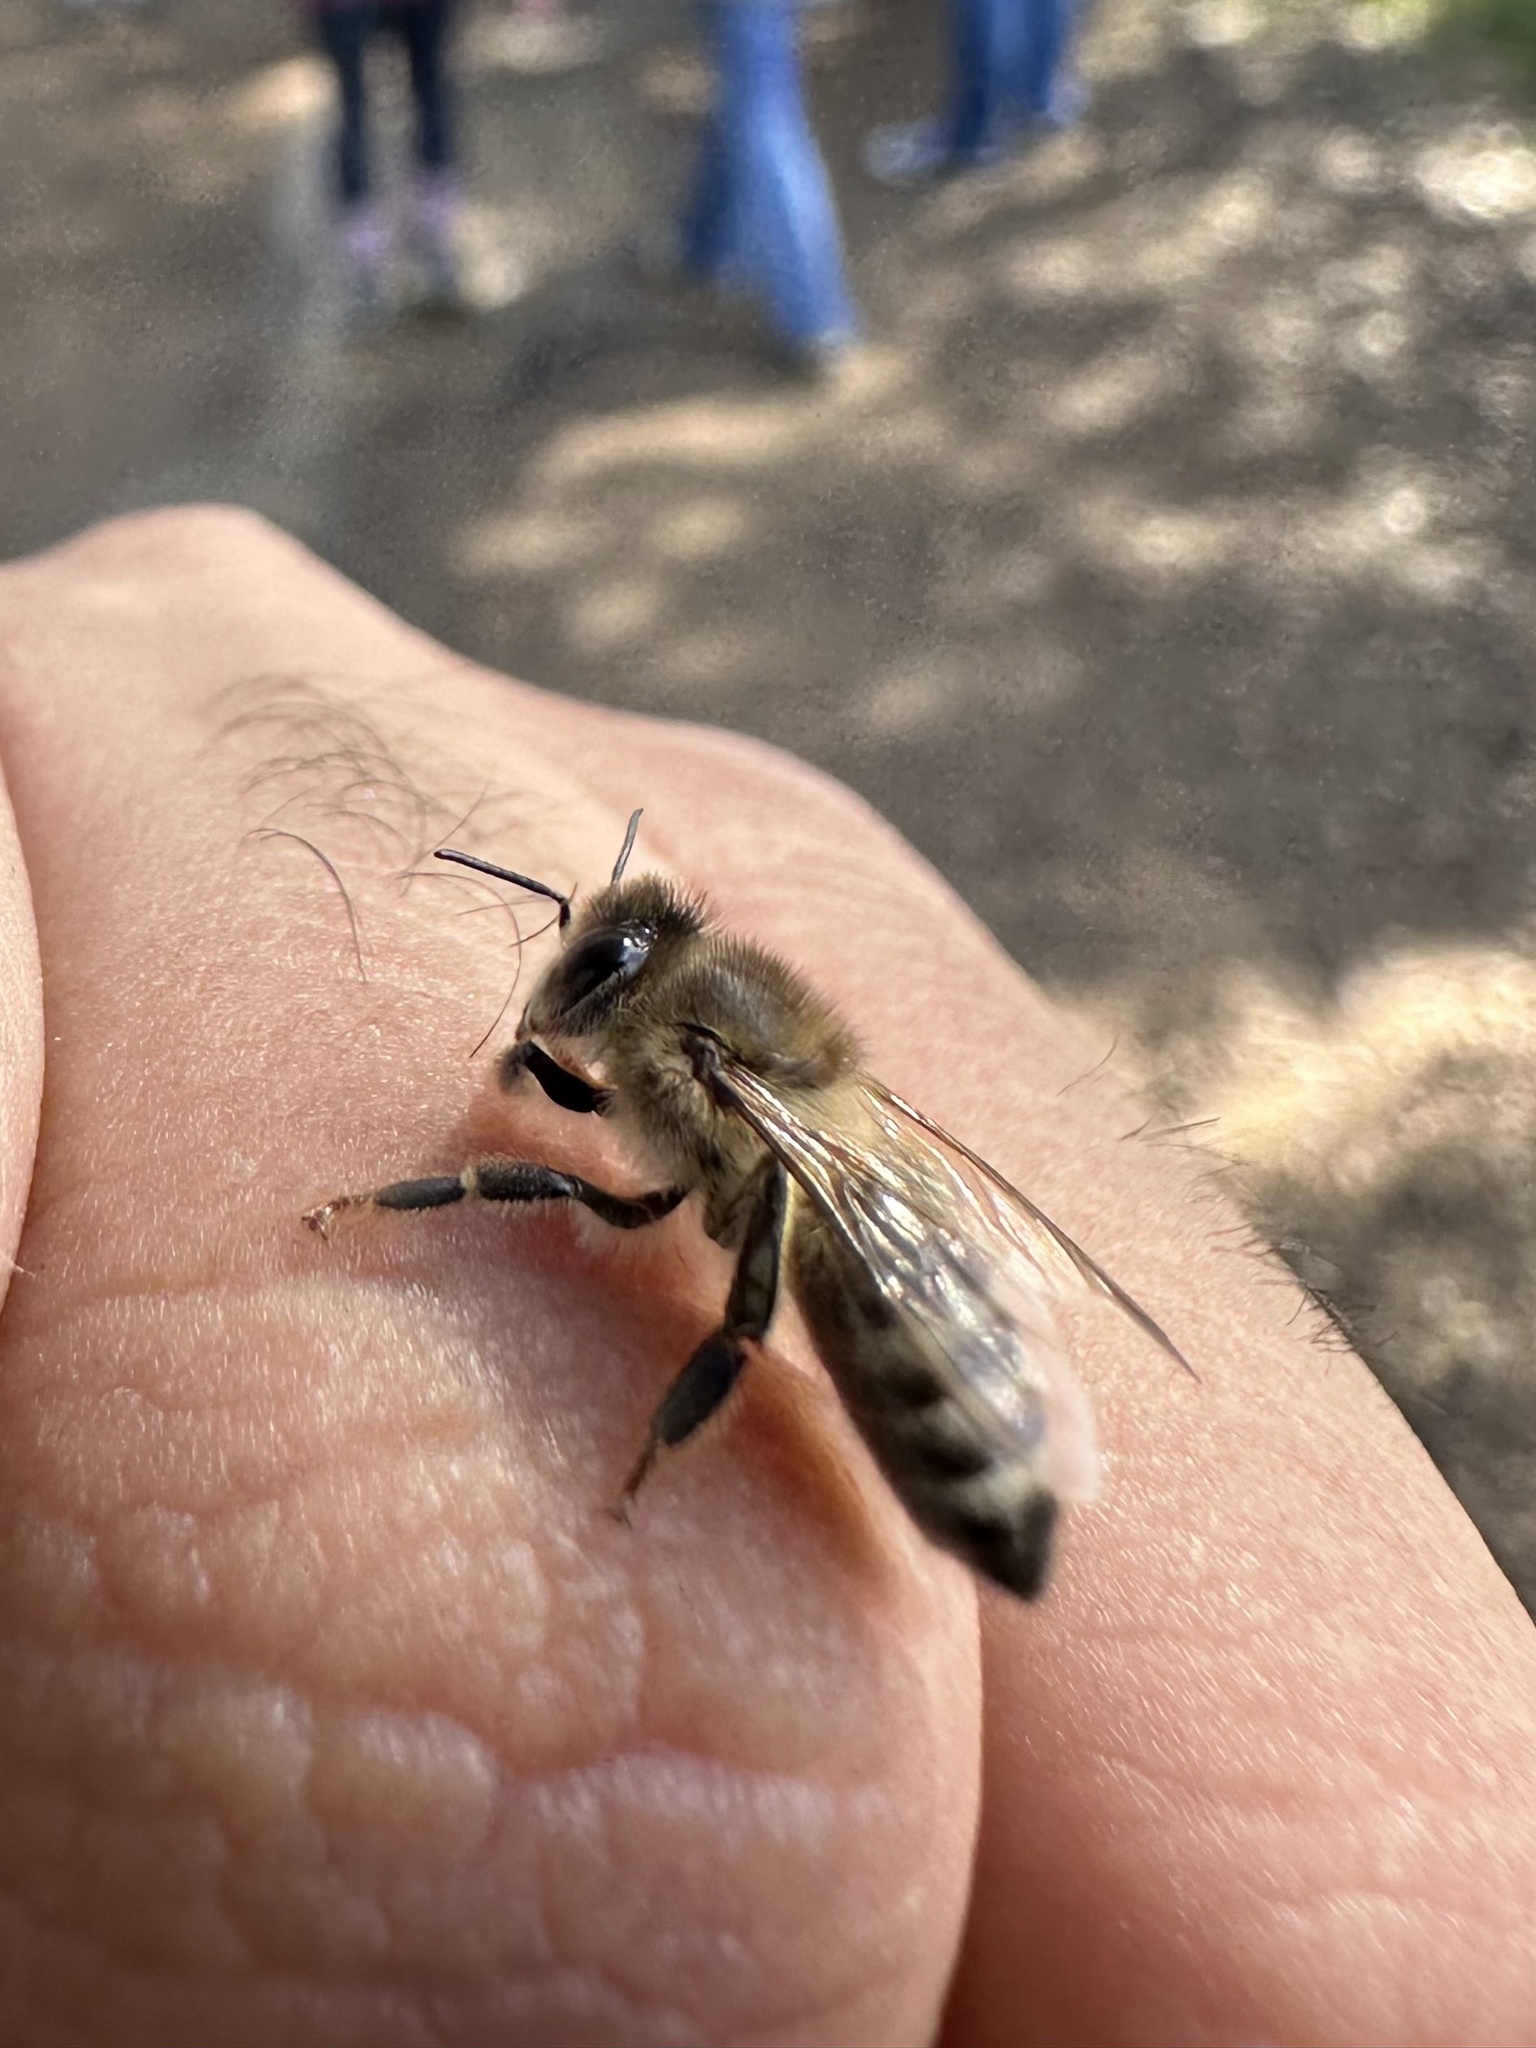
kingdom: Animalia
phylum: Arthropoda
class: Insecta
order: Hymenoptera
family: Apidae
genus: Apis
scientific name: Apis mellifera
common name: Honey bee
